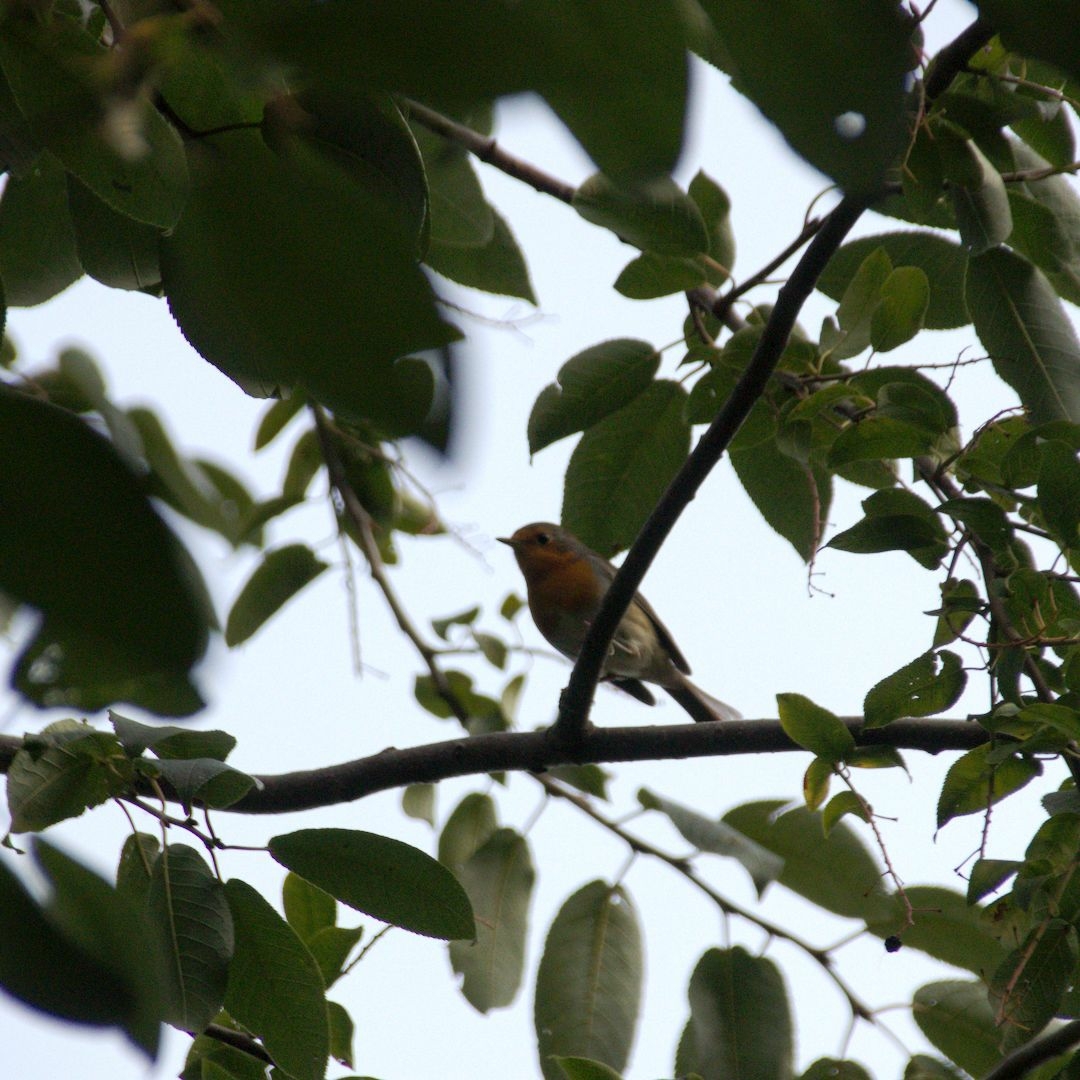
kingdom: Animalia
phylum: Chordata
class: Aves
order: Passeriformes
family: Muscicapidae
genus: Erithacus
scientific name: Erithacus rubecula
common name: European robin
